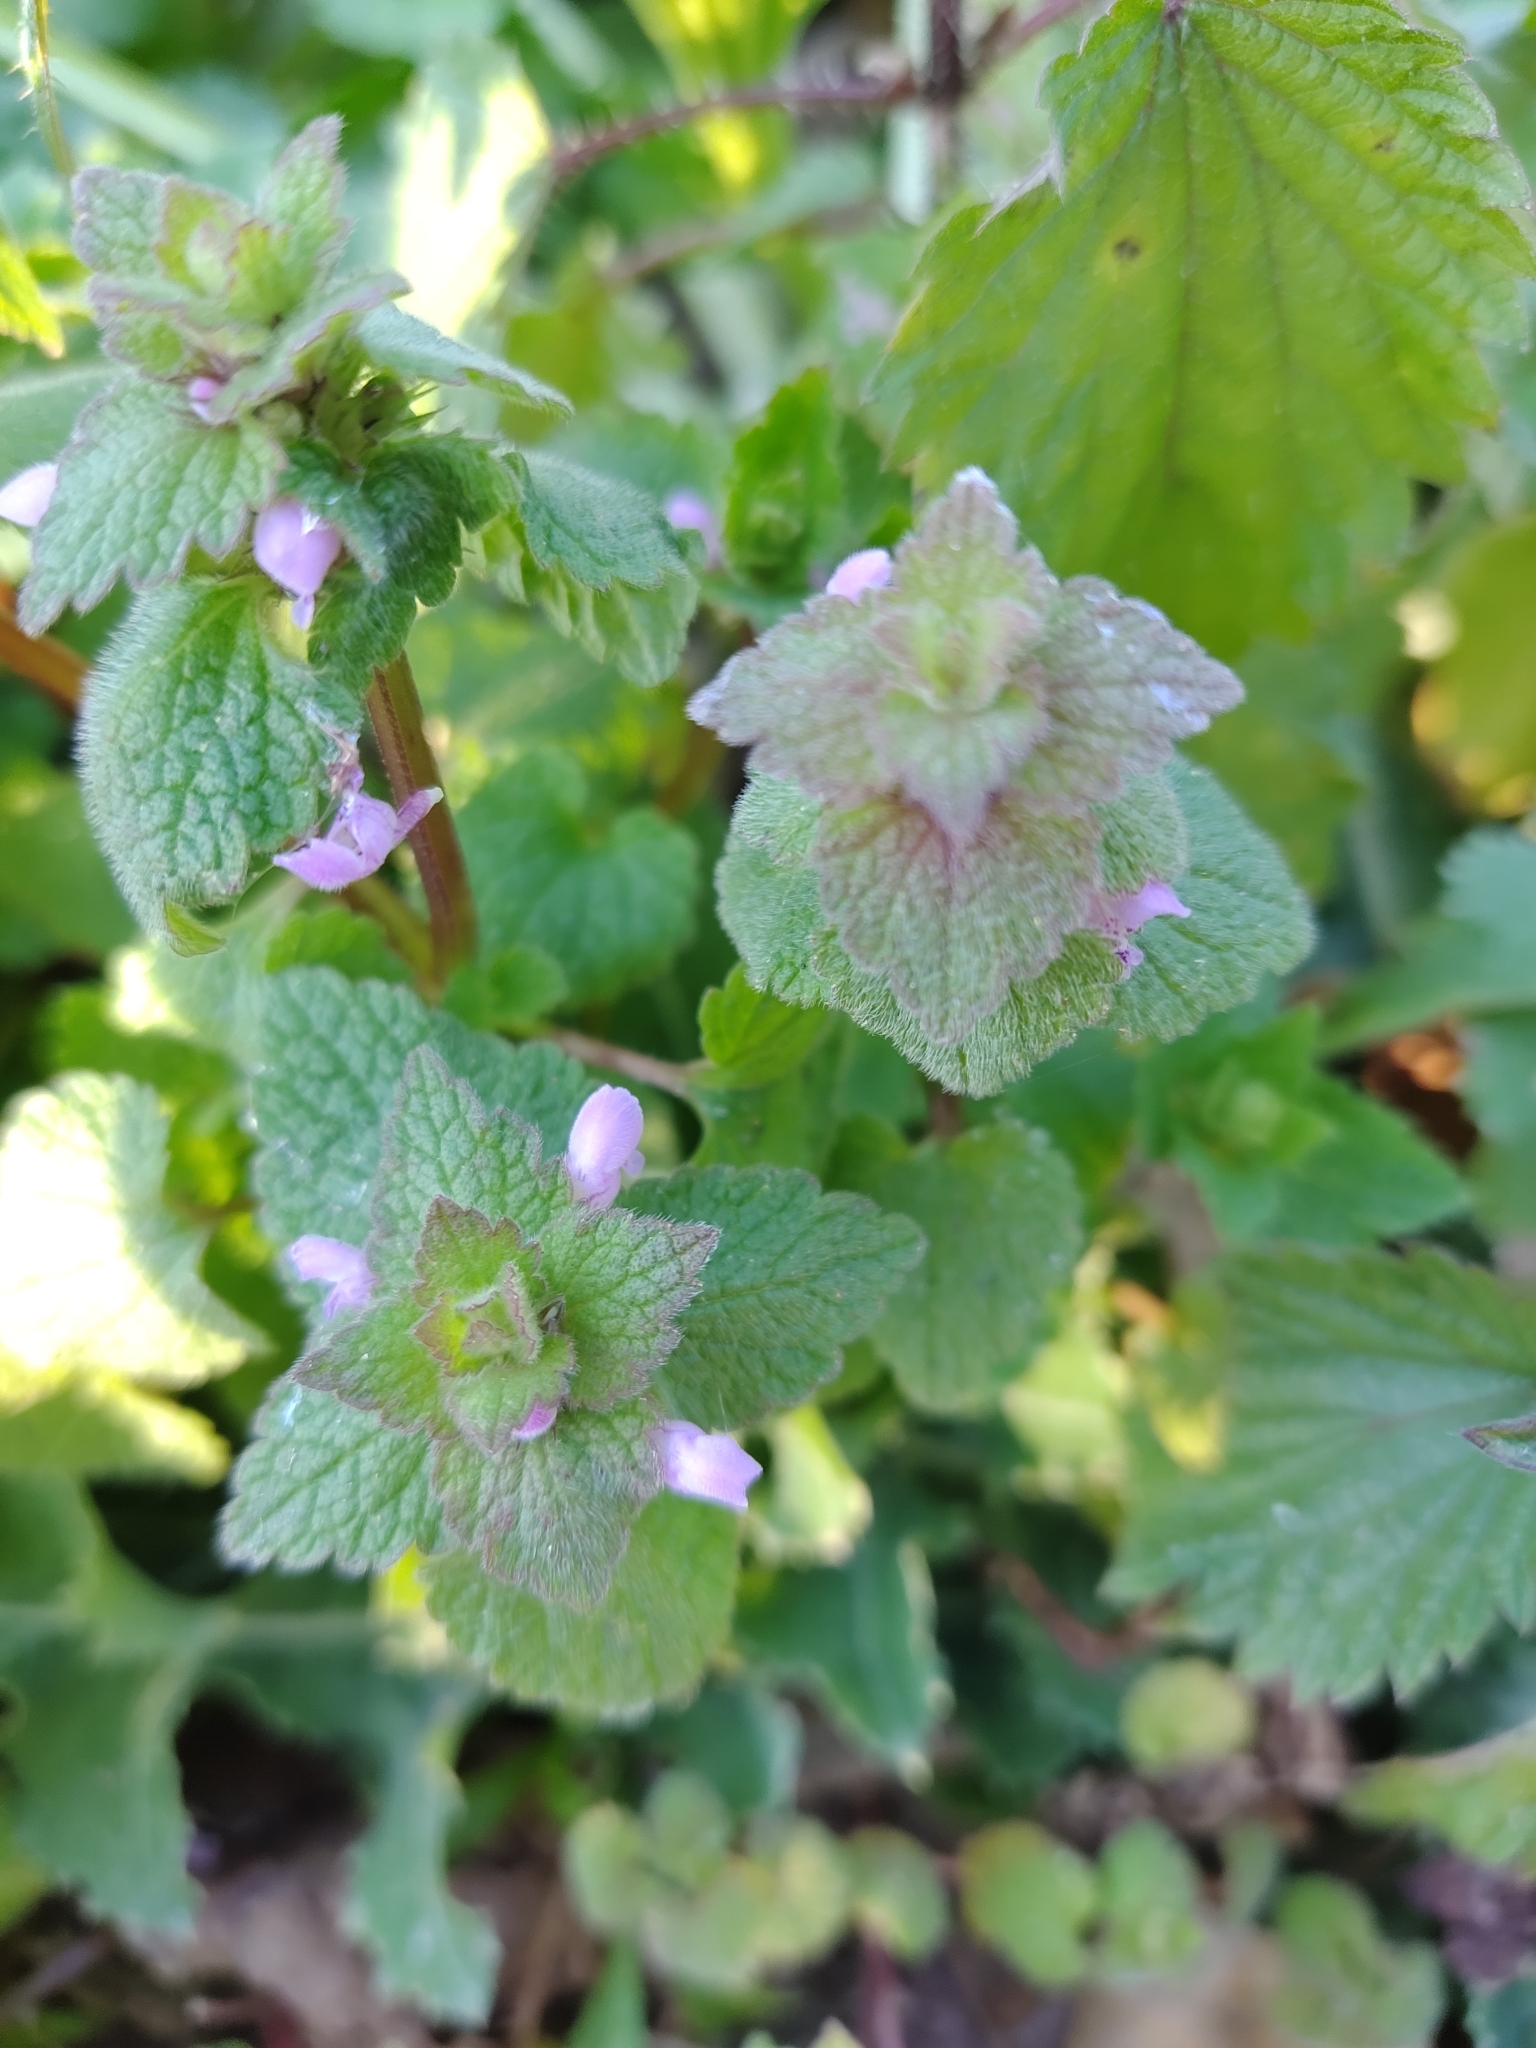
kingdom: Plantae
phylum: Tracheophyta
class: Magnoliopsida
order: Lamiales
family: Lamiaceae
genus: Lamium
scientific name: Lamium purpureum
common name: Red dead-nettle
